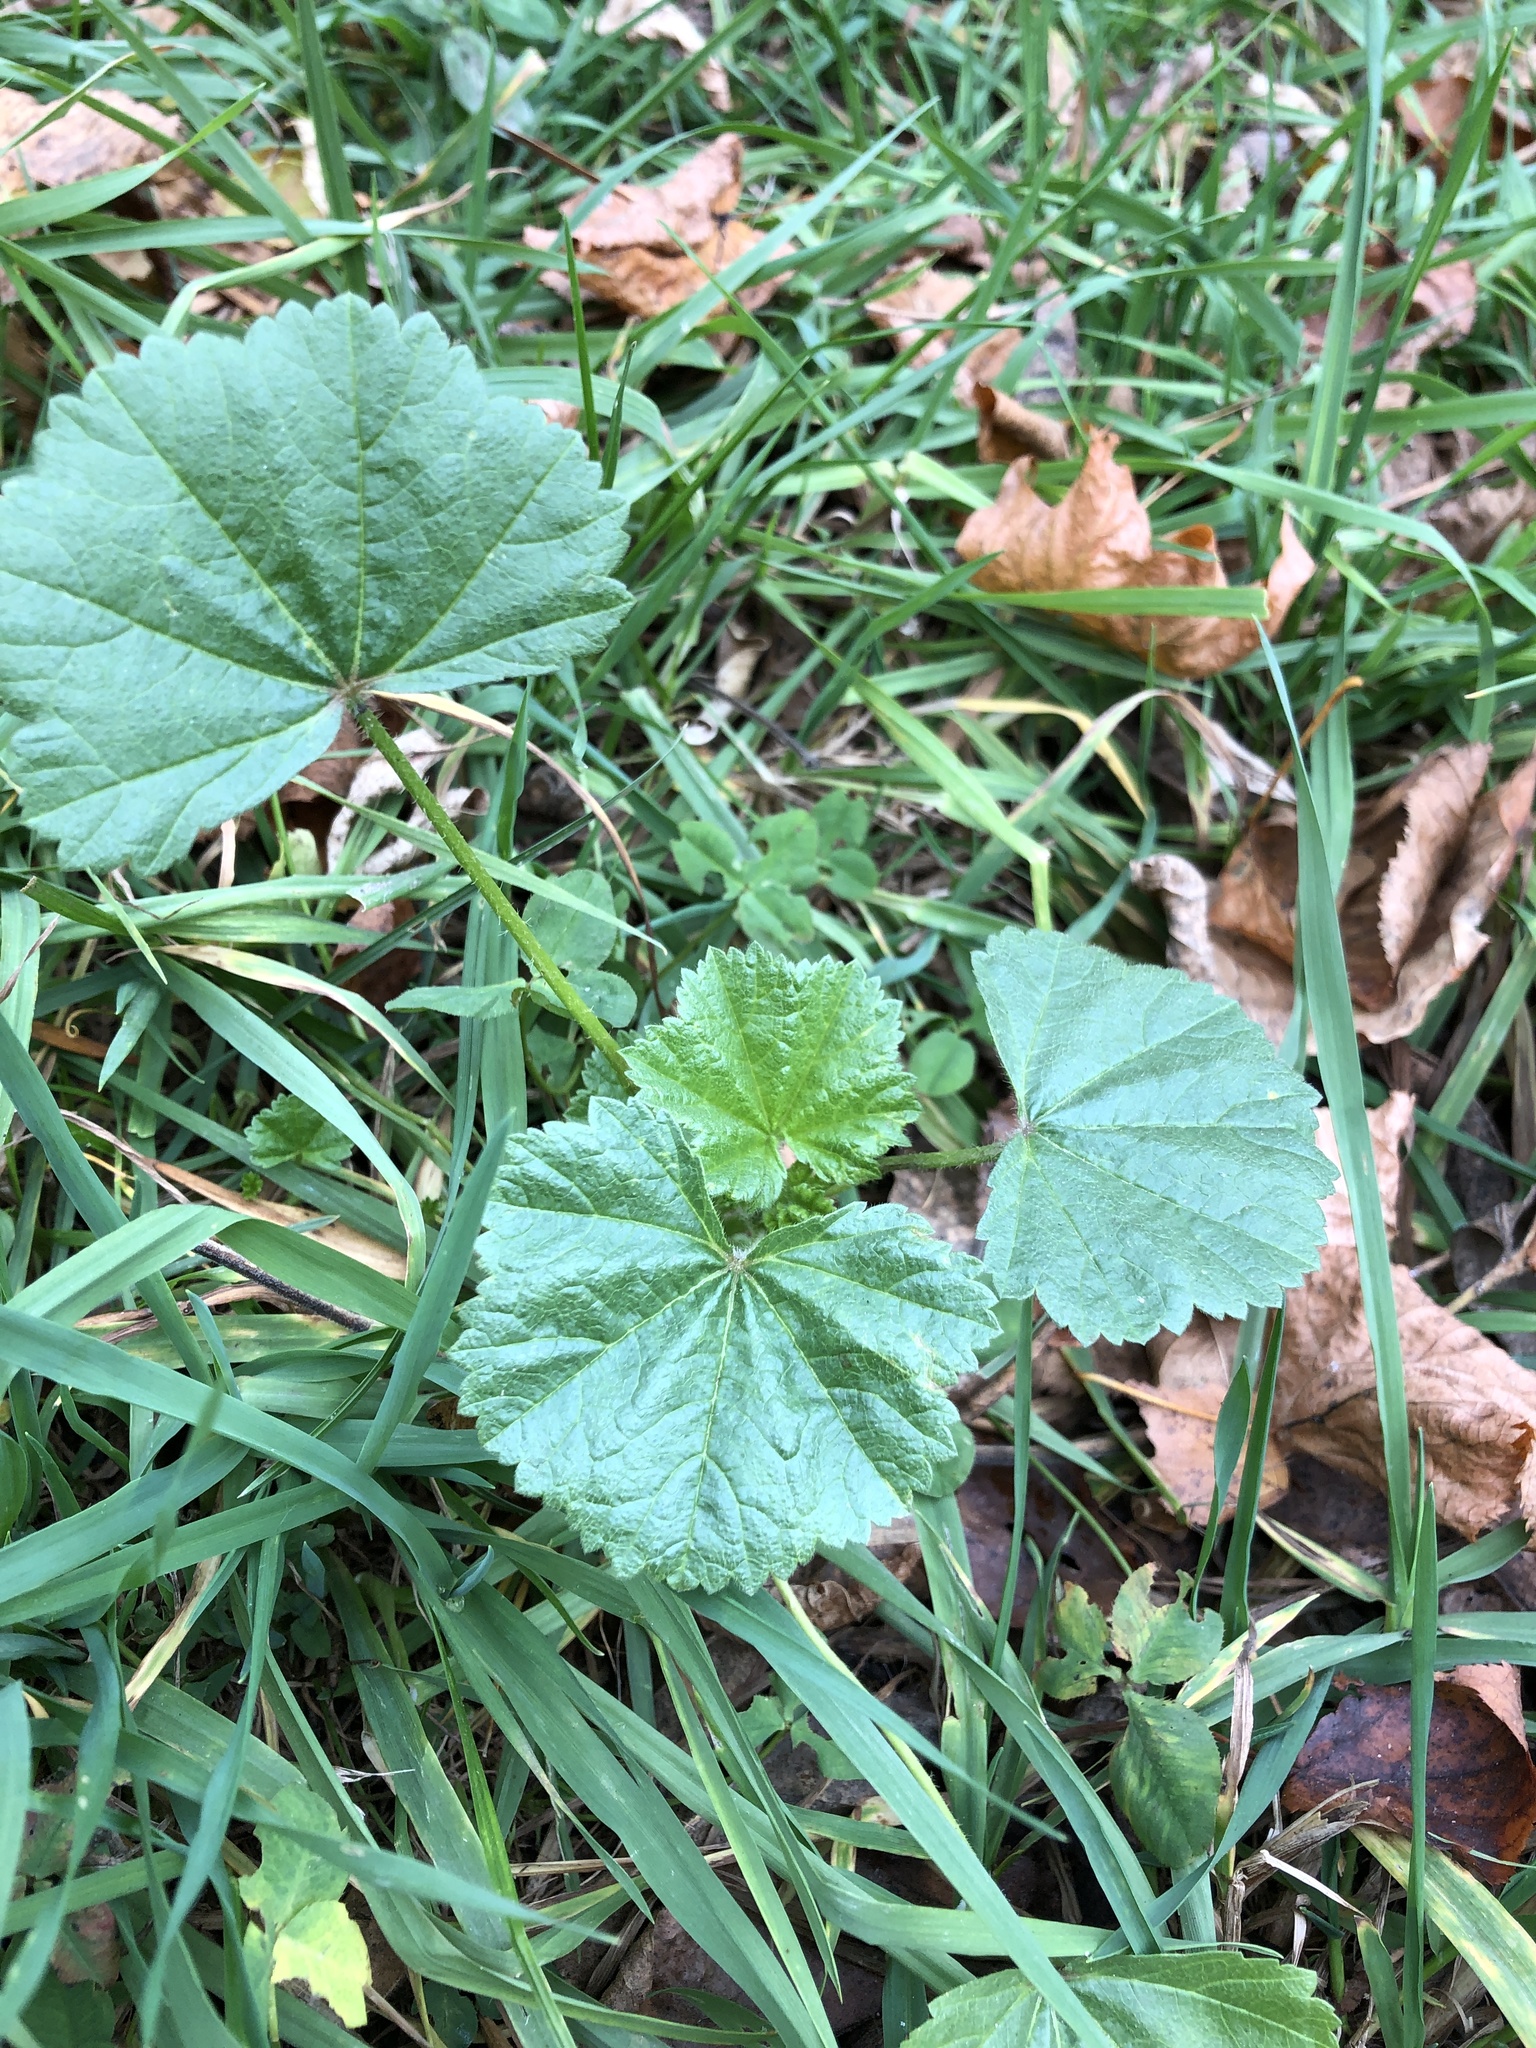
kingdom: Plantae
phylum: Tracheophyta
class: Magnoliopsida
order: Malvales
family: Malvaceae
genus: Malva
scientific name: Malva pusilla
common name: Small mallow
